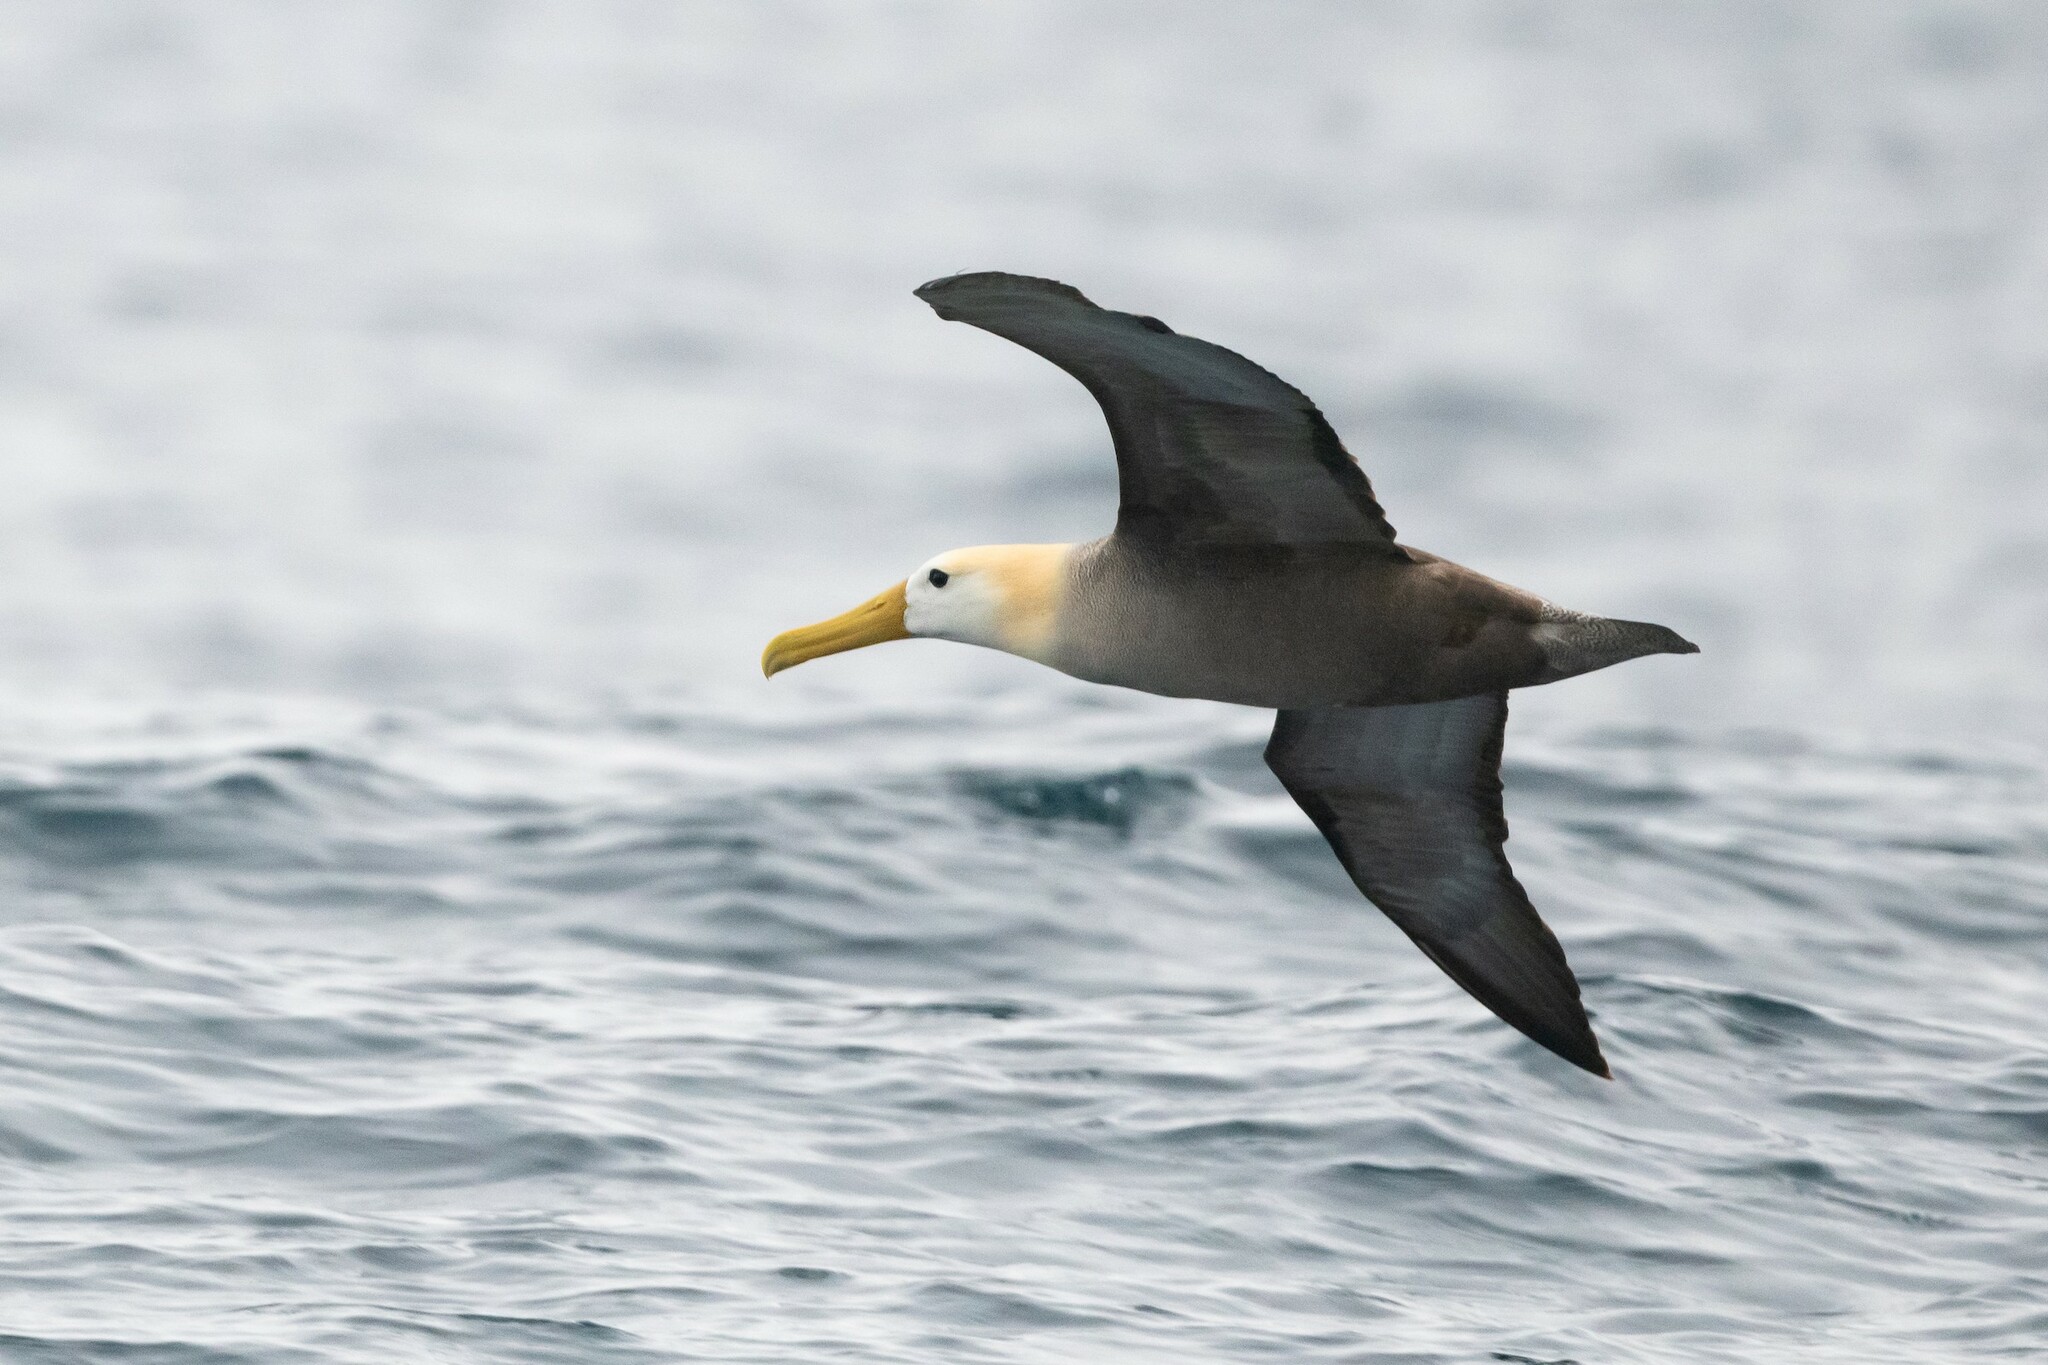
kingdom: Animalia
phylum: Chordata
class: Aves
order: Procellariiformes
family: Diomedeidae
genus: Phoebastria
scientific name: Phoebastria irrorata
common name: Waved albatross
